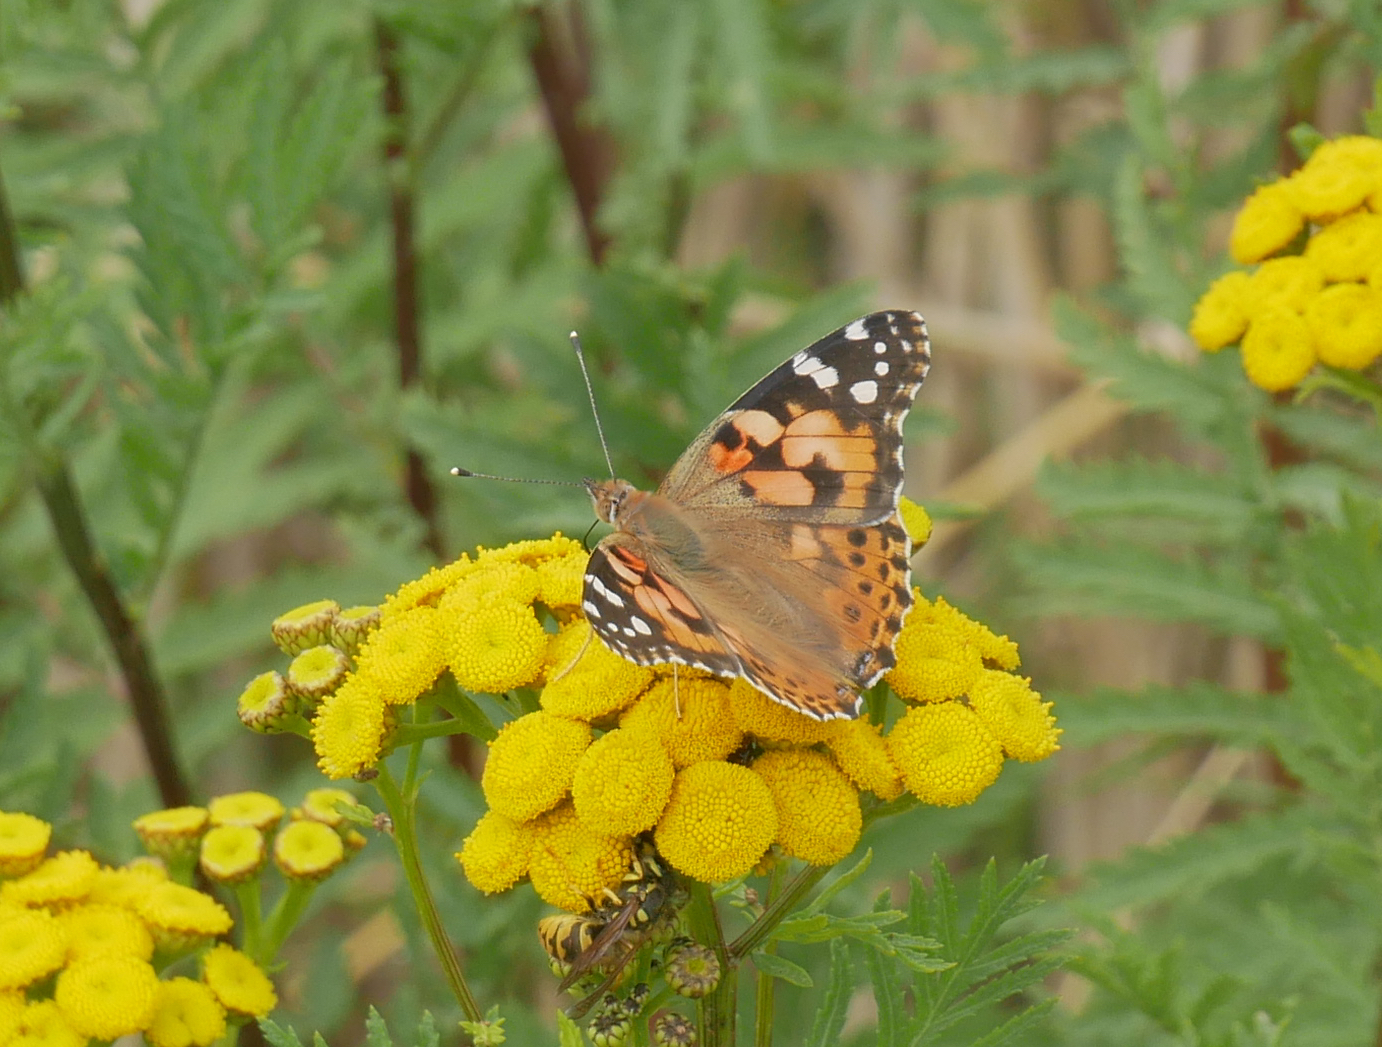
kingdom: Animalia
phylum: Arthropoda
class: Insecta
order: Lepidoptera
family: Nymphalidae
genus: Vanessa
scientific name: Vanessa cardui
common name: Painted lady
